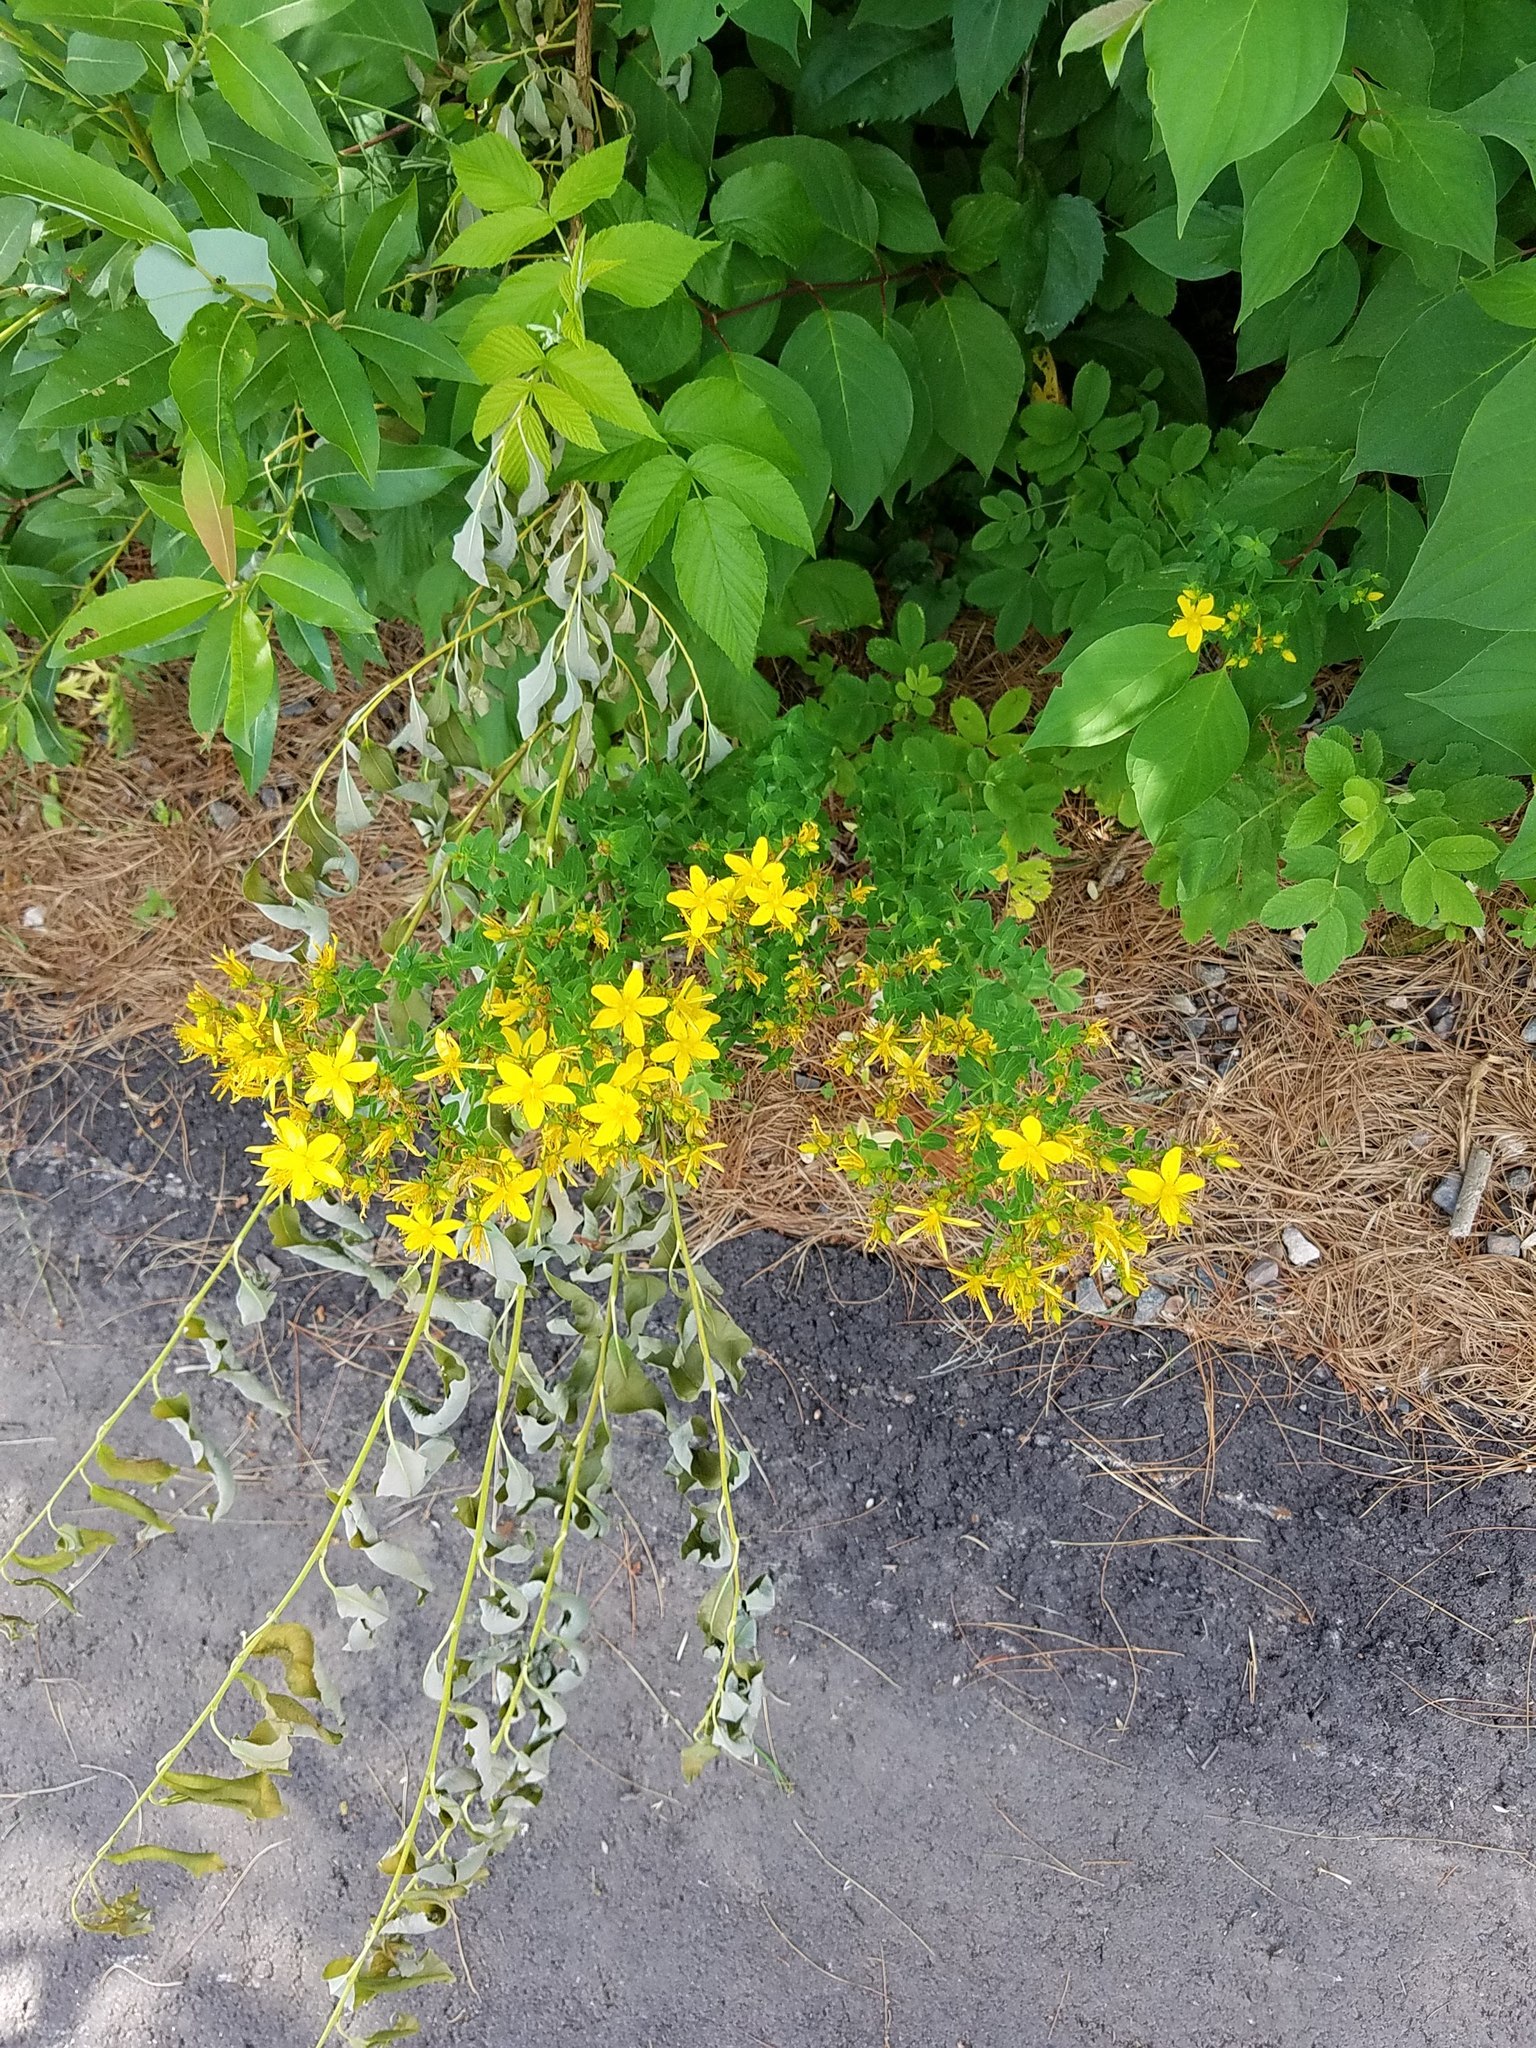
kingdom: Plantae
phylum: Tracheophyta
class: Magnoliopsida
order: Malpighiales
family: Hypericaceae
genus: Hypericum
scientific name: Hypericum perforatum
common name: Common st. johnswort
